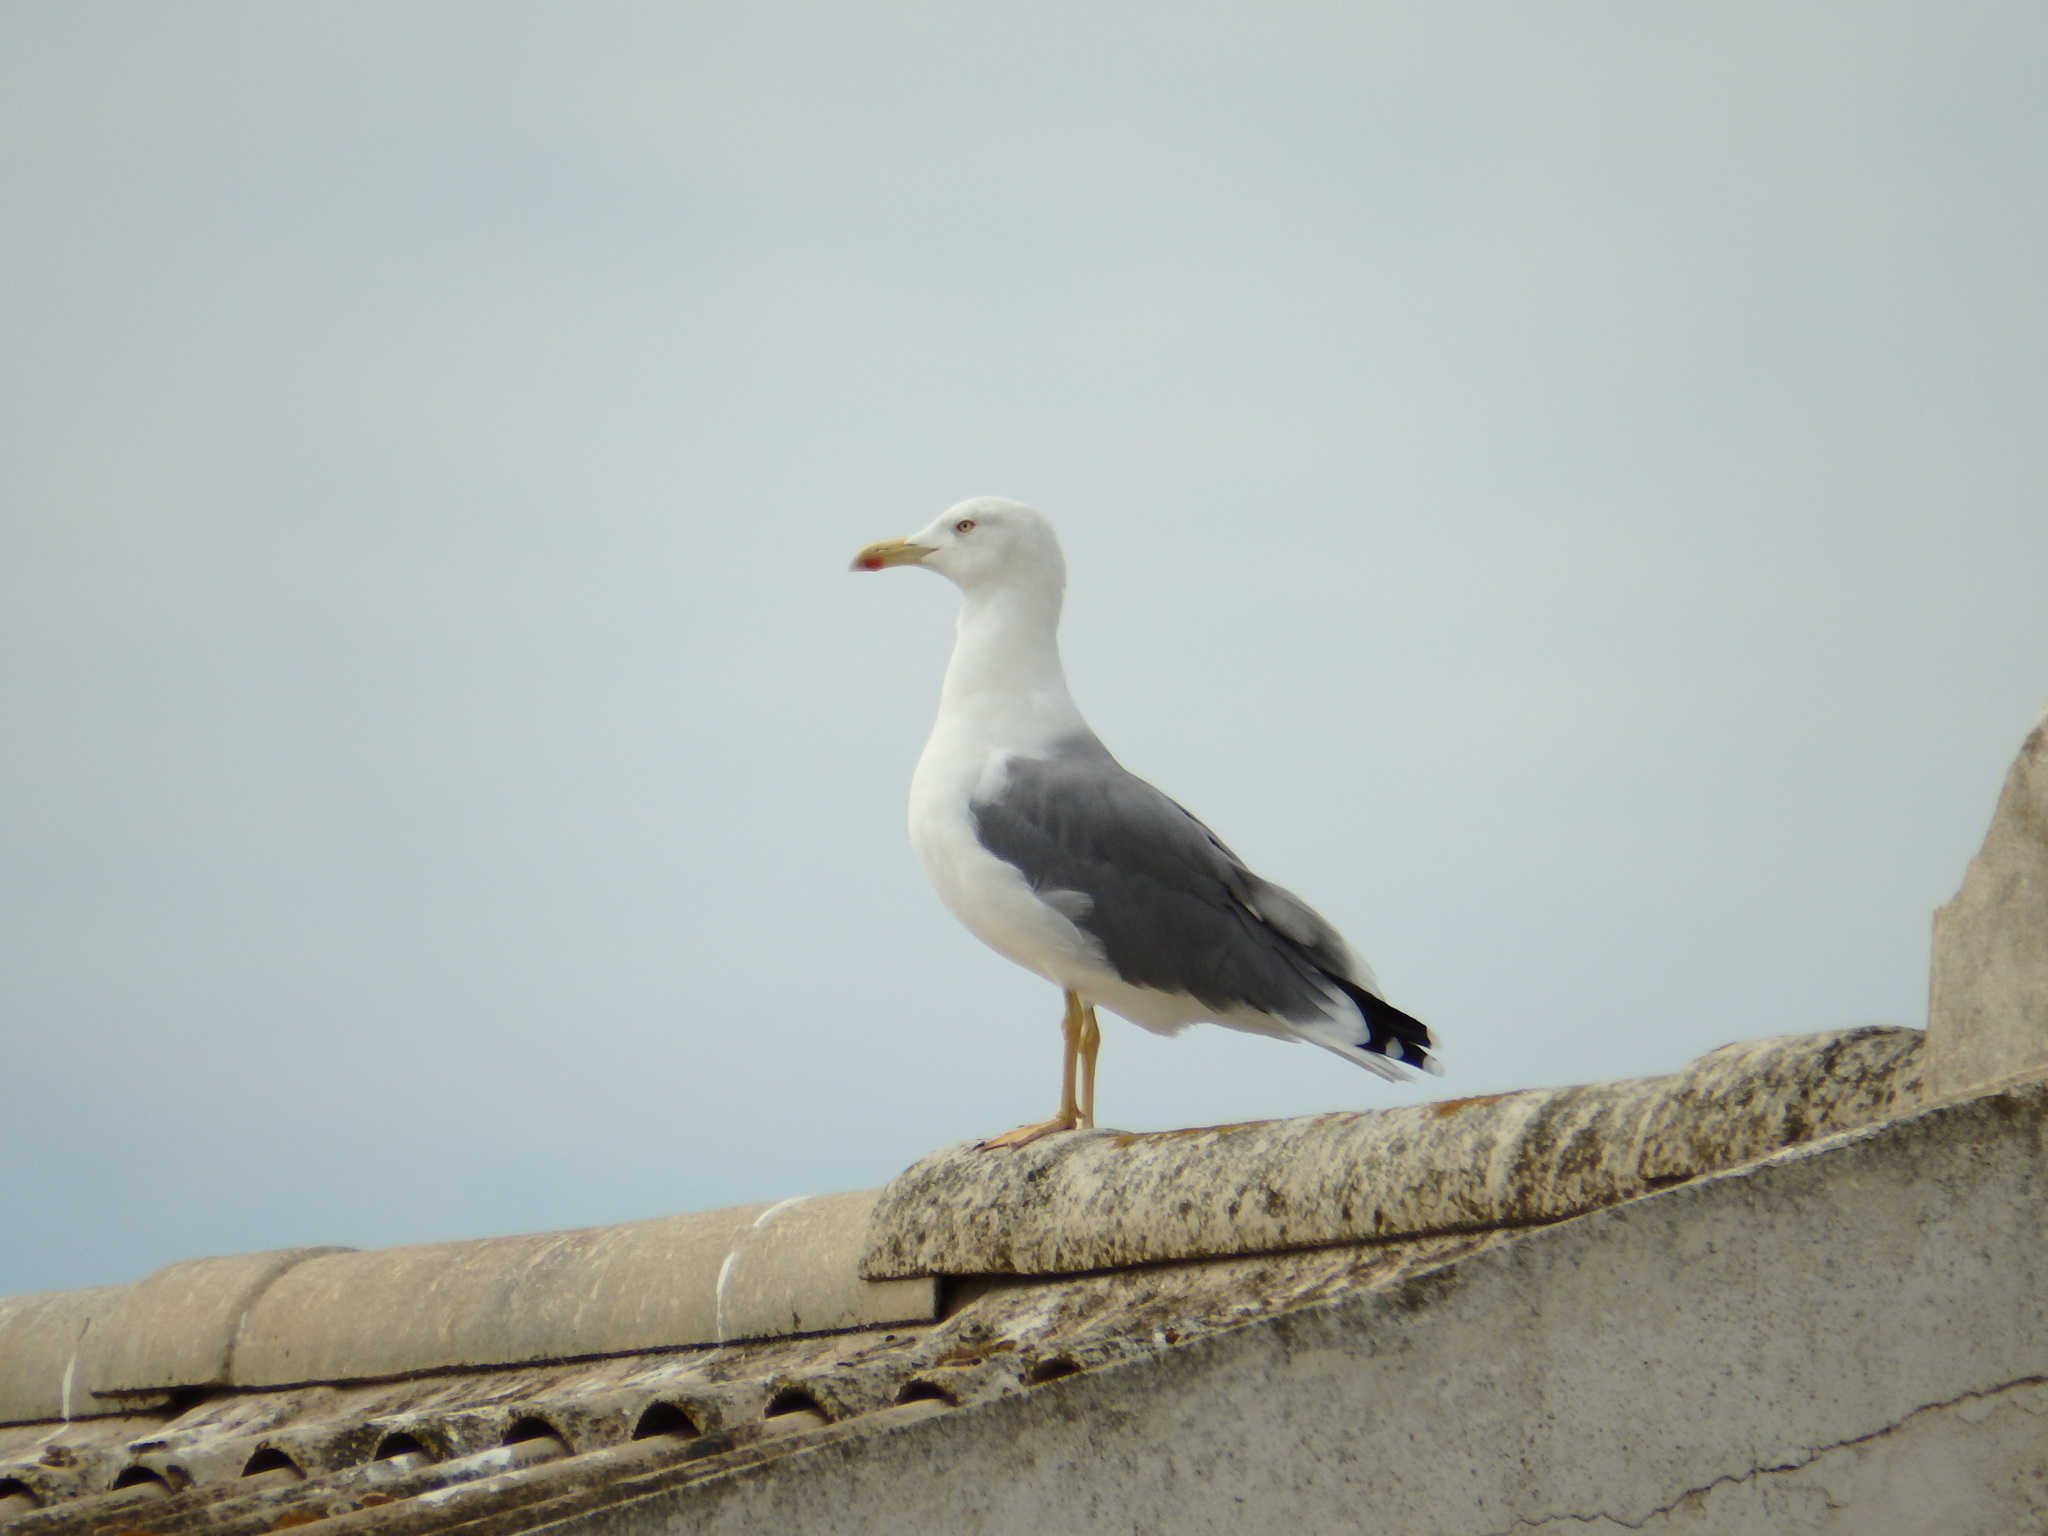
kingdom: Animalia
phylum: Chordata
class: Aves
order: Charadriiformes
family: Laridae
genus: Larus
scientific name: Larus michahellis
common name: Yellow-legged gull
